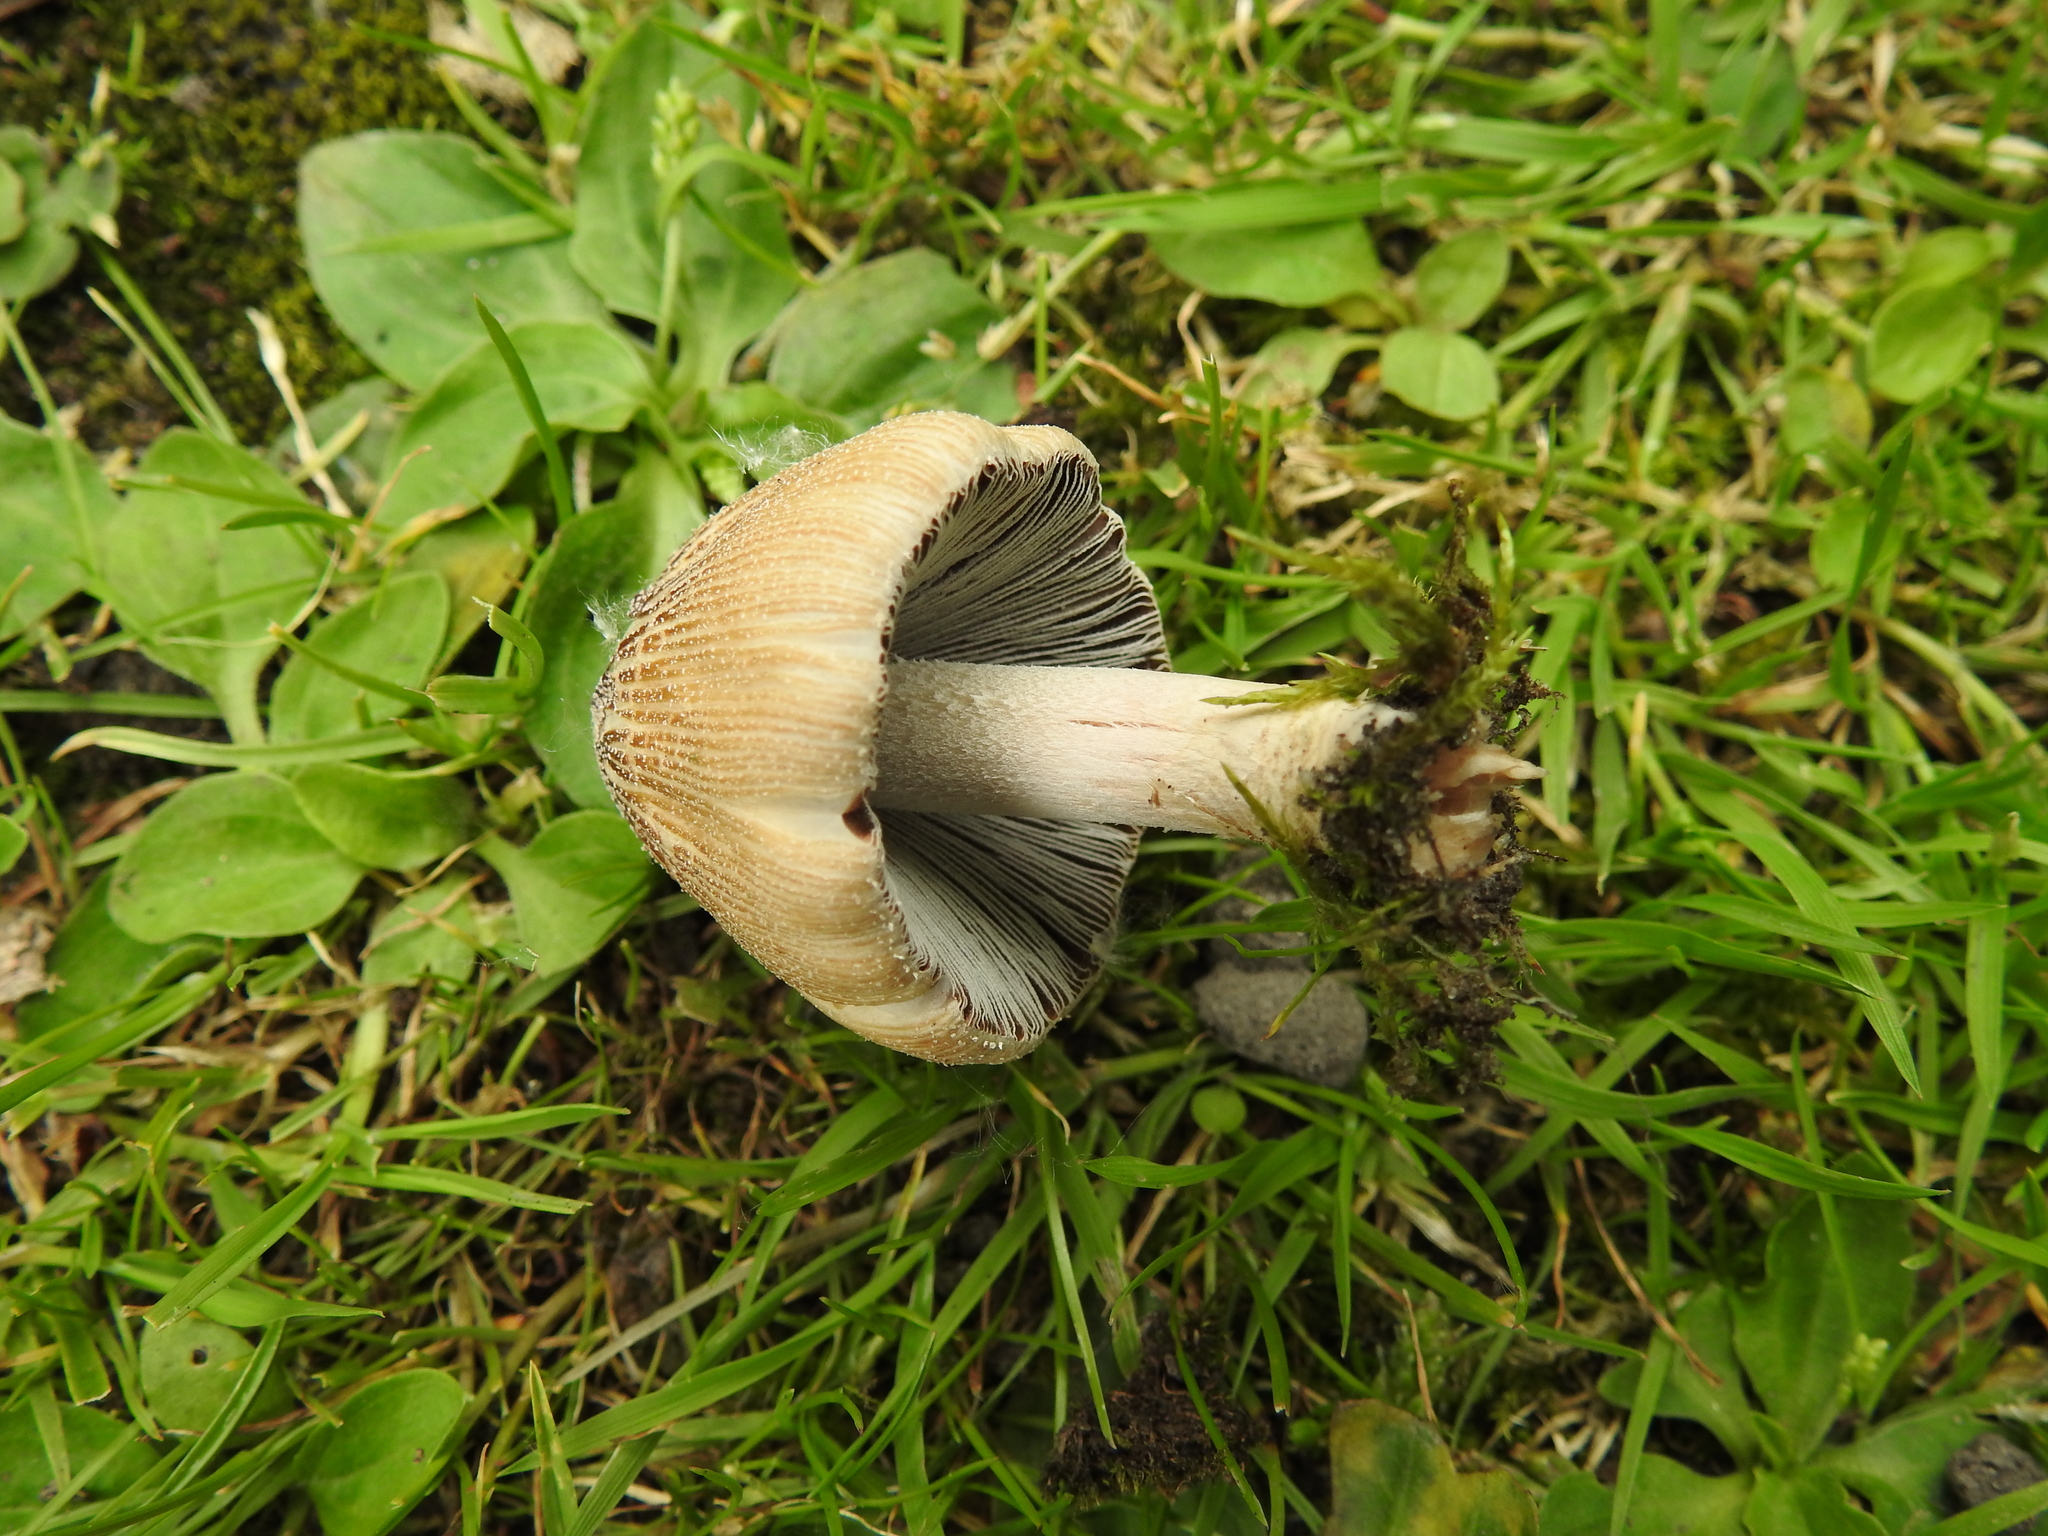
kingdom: Fungi
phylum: Basidiomycota
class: Agaricomycetes
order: Agaricales
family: Psathyrellaceae
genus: Coprinellus
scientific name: Coprinellus micaceus
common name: Glistening ink-cap
